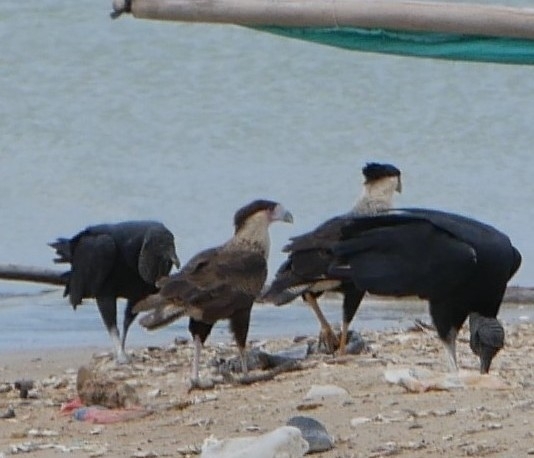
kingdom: Animalia
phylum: Chordata
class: Aves
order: Falconiformes
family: Falconidae
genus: Caracara
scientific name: Caracara plancus
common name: Southern caracara
